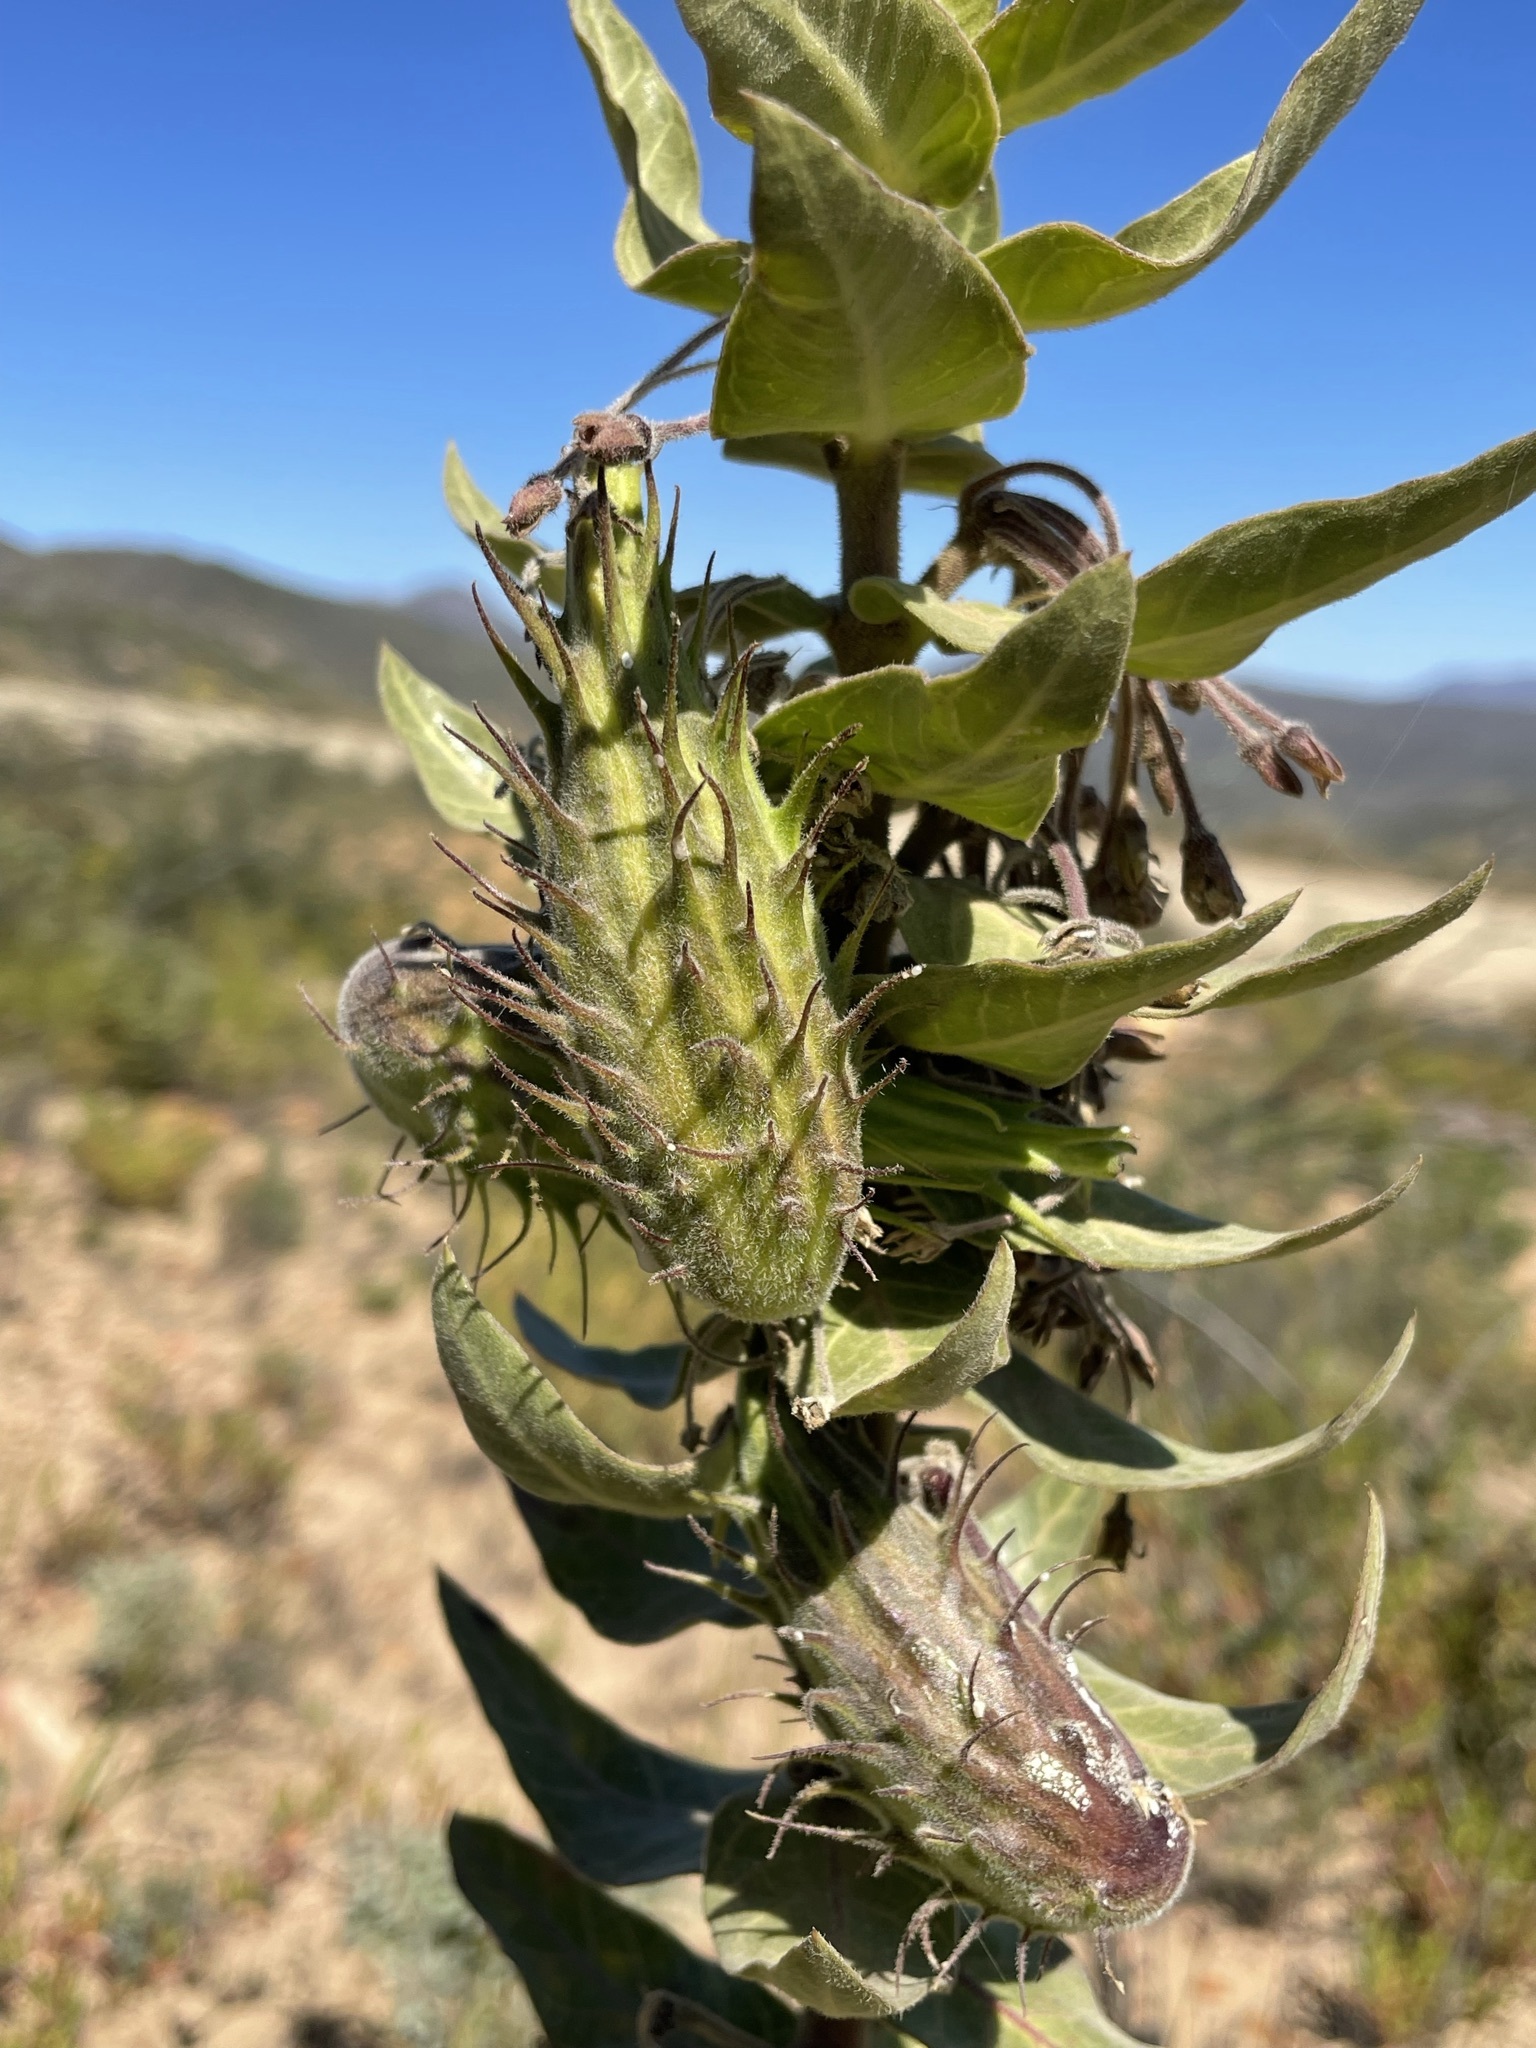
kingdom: Plantae
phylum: Tracheophyta
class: Magnoliopsida
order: Gentianales
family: Apocynaceae
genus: Gomphocarpus
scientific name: Gomphocarpus cancellatus
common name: Wild cotton
